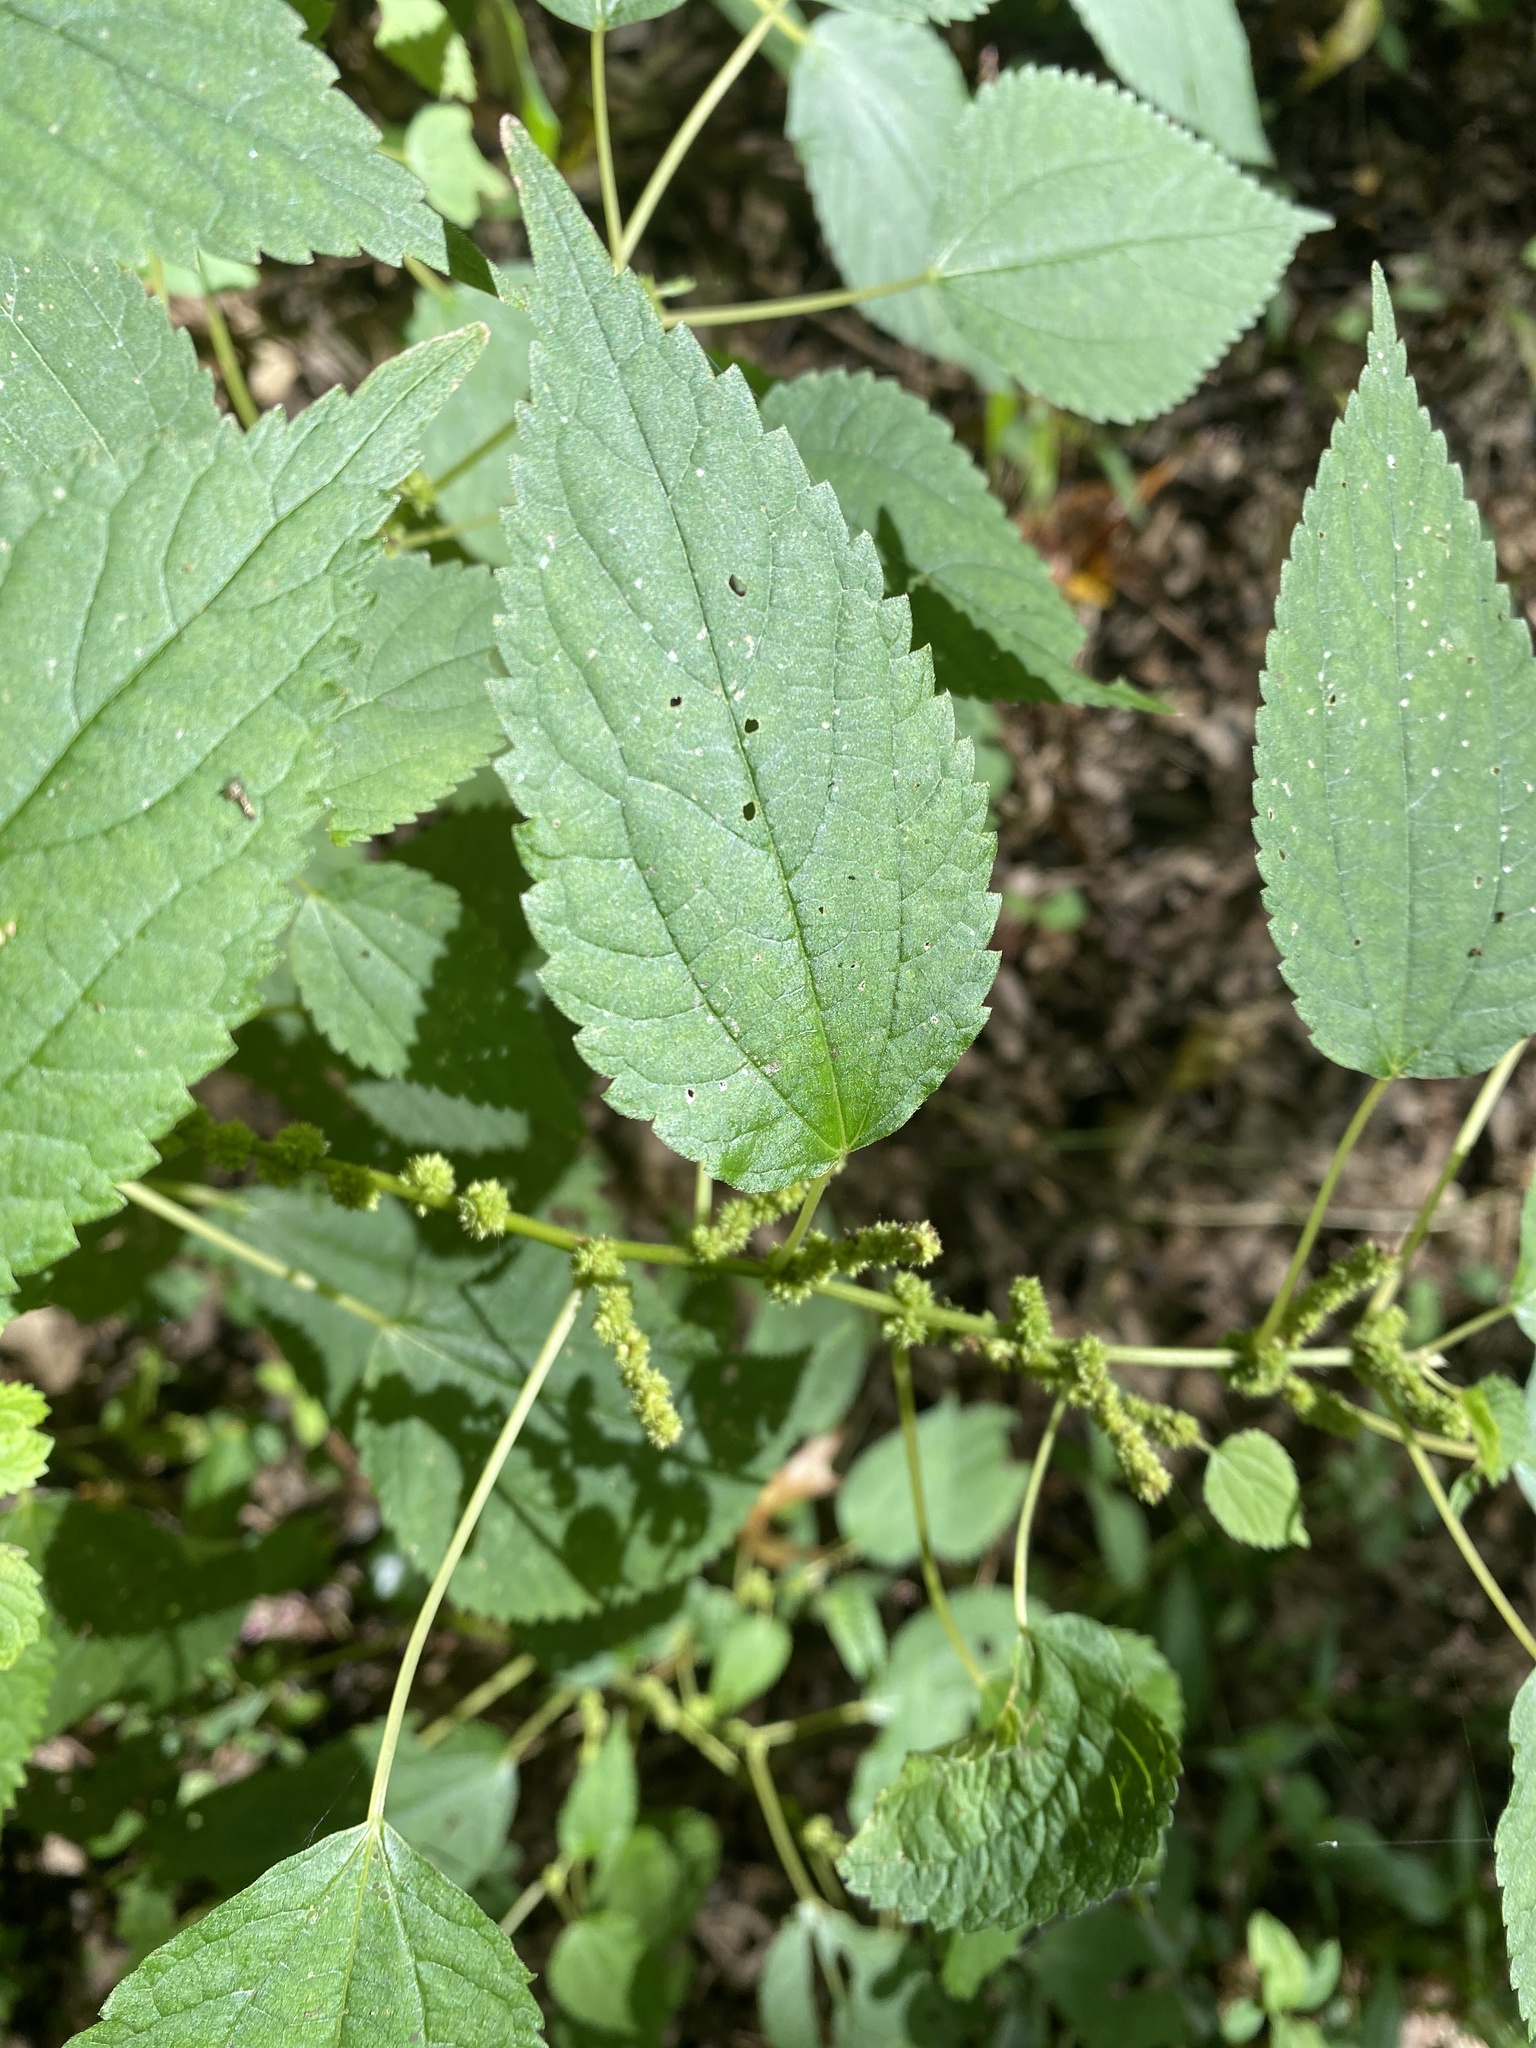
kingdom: Plantae
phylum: Tracheophyta
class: Magnoliopsida
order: Rosales
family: Urticaceae
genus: Boehmeria
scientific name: Boehmeria cylindrica
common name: Bog-hemp
